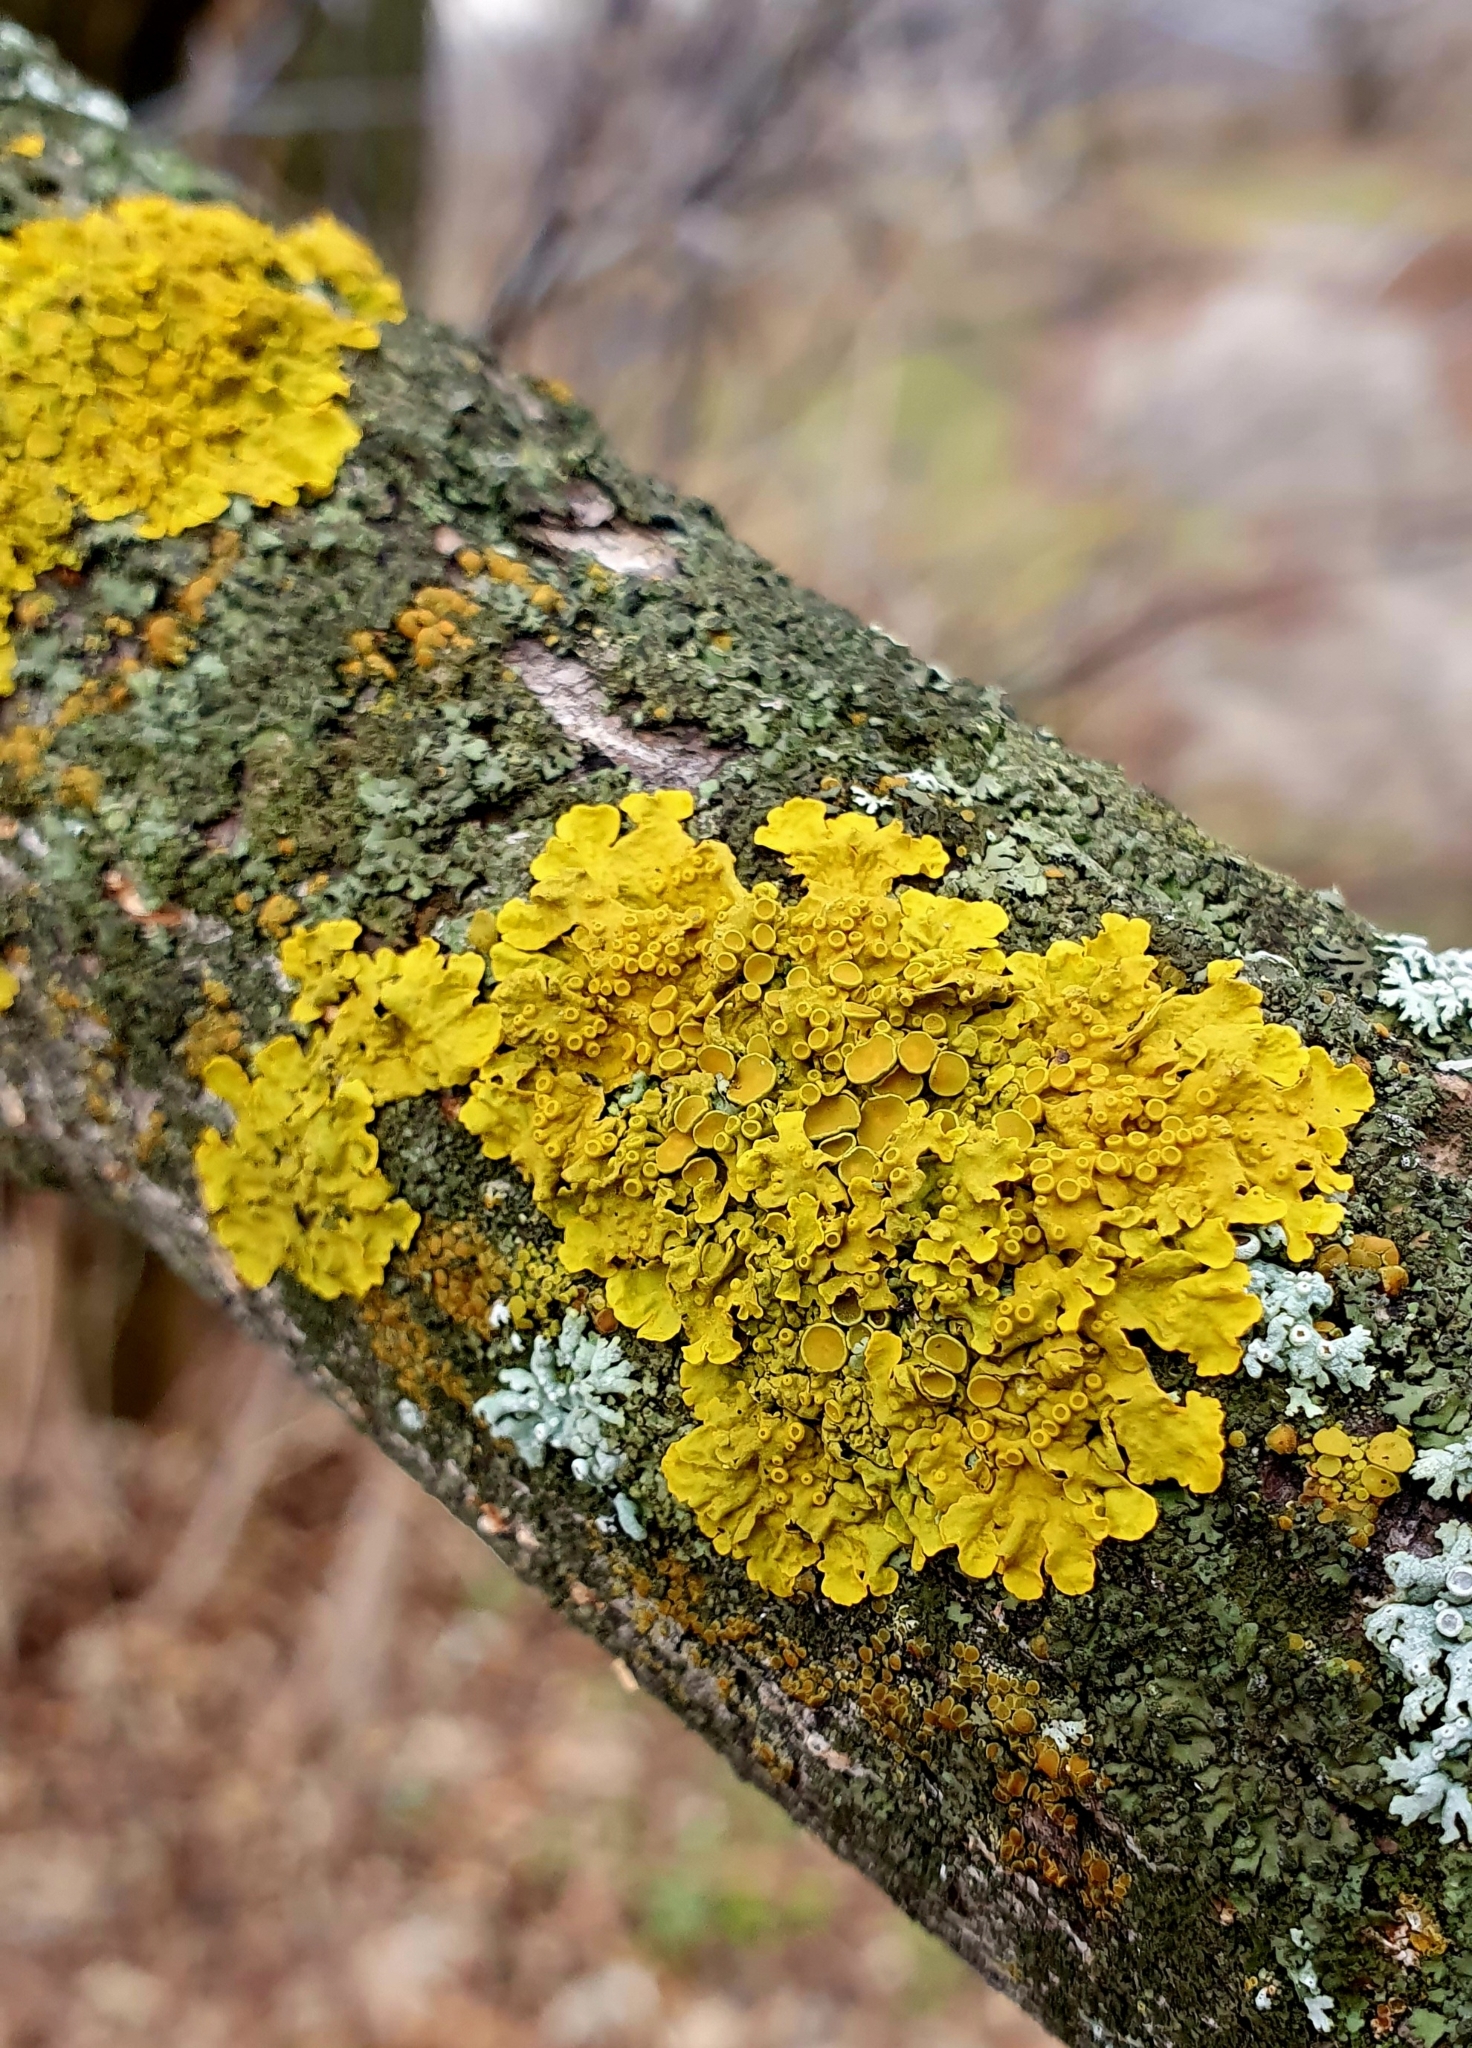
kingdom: Fungi
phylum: Ascomycota
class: Lecanoromycetes
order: Teloschistales
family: Teloschistaceae
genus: Xanthoria
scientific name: Xanthoria parietina
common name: Common orange lichen
